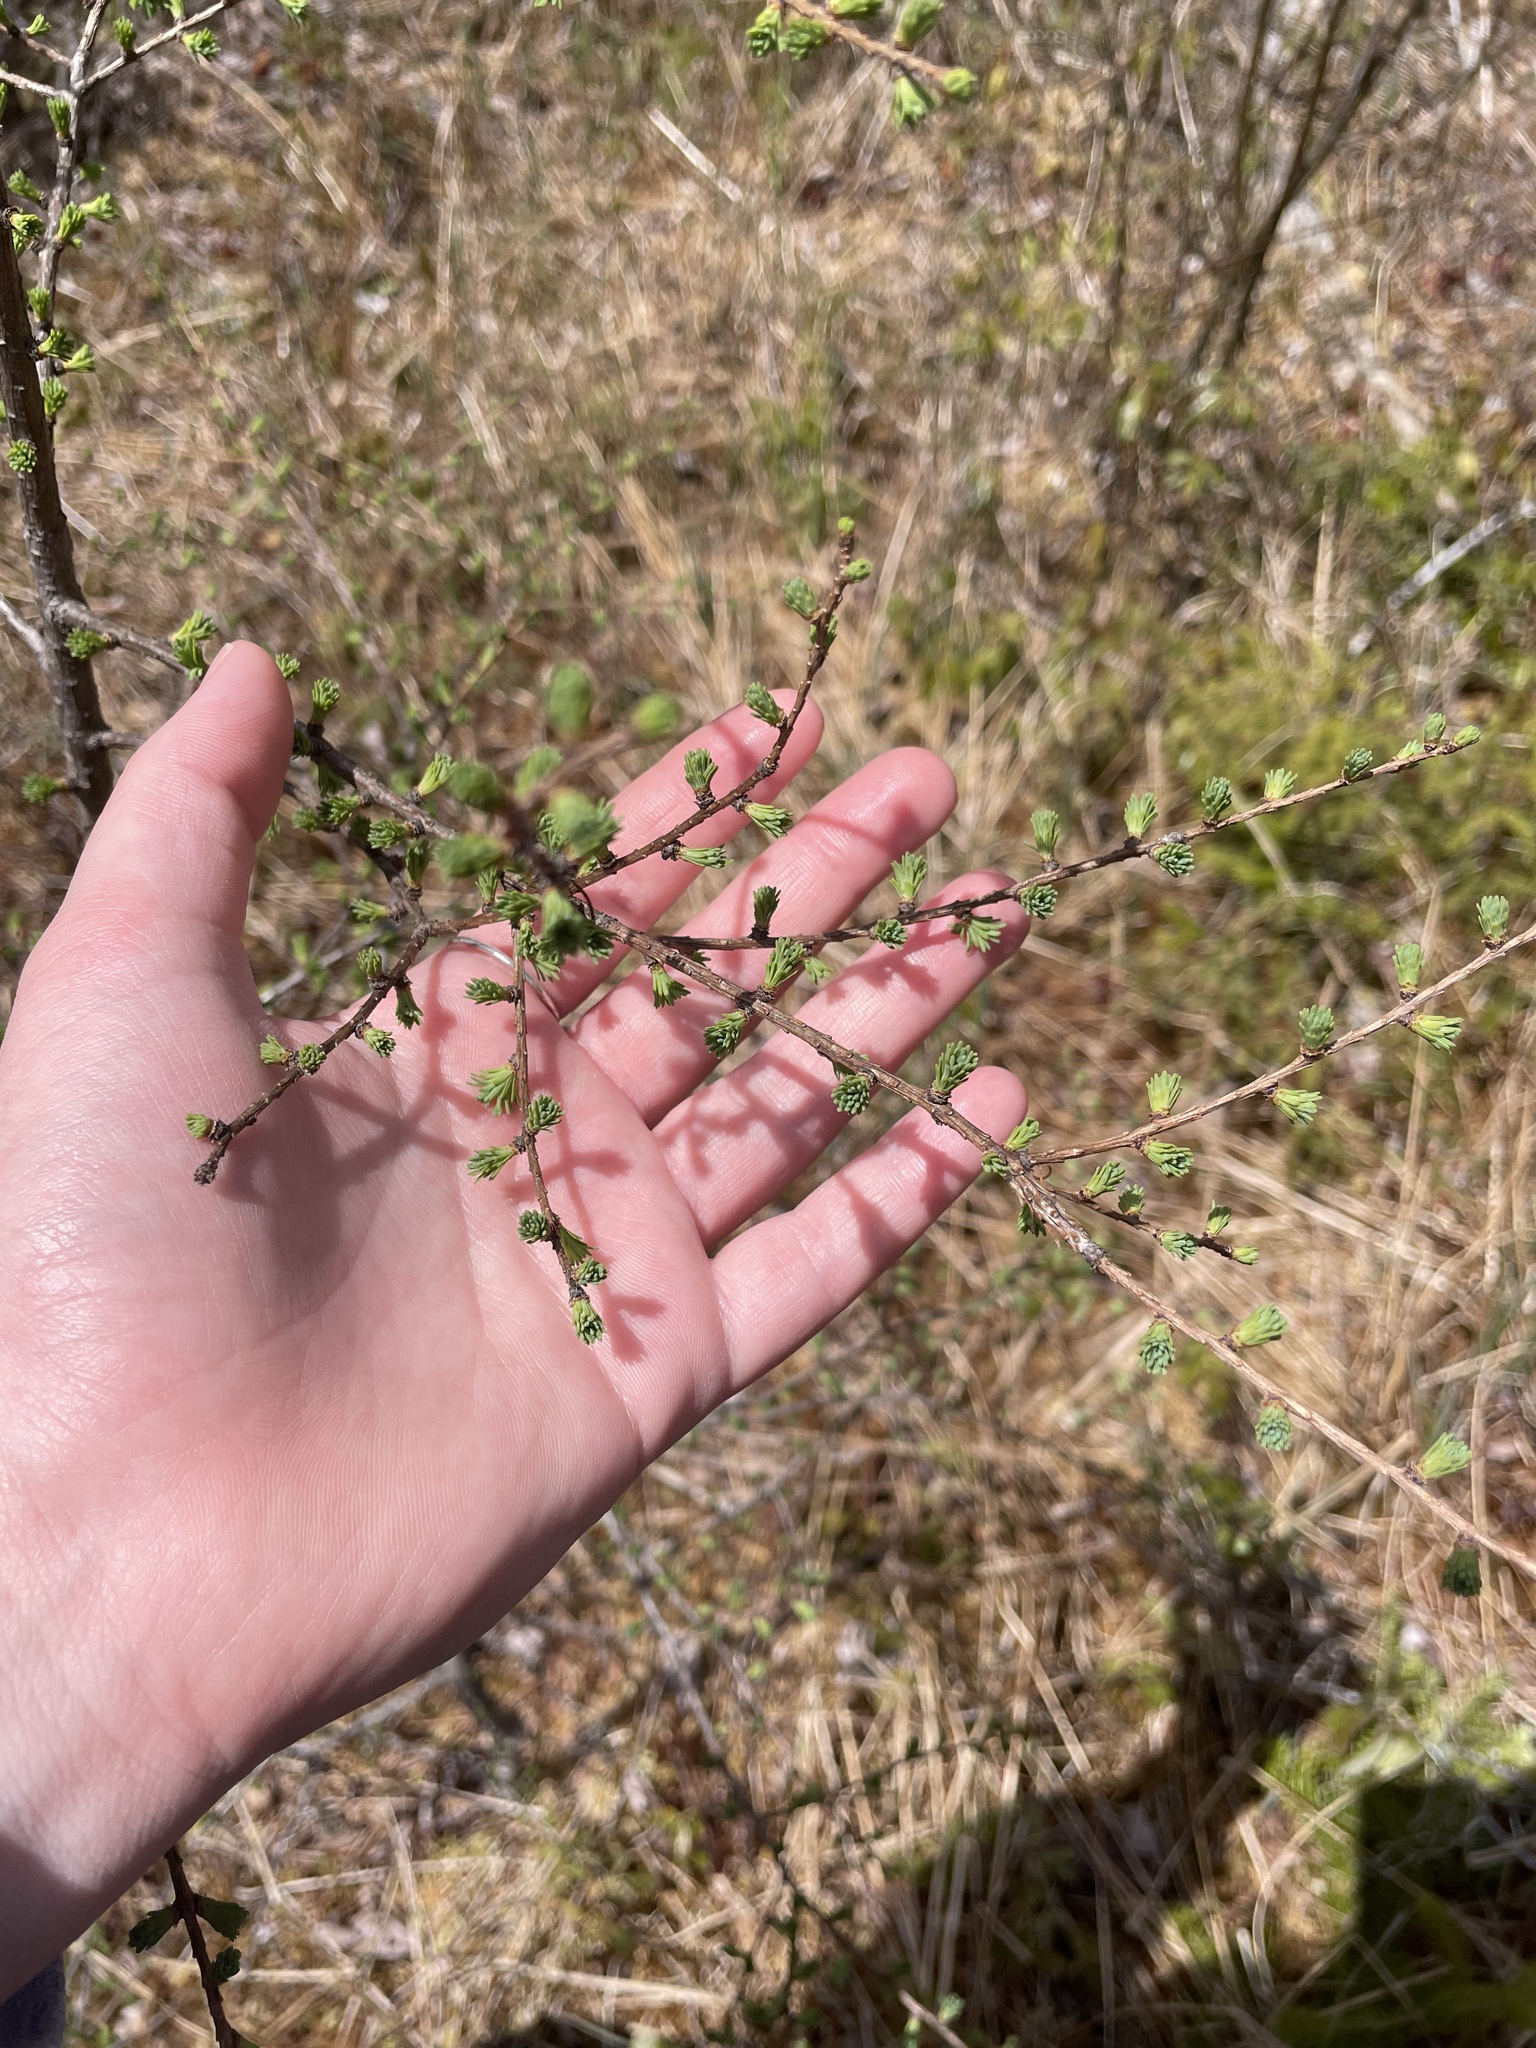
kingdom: Plantae
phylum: Tracheophyta
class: Pinopsida
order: Pinales
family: Pinaceae
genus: Larix
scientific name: Larix laricina
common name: American larch
